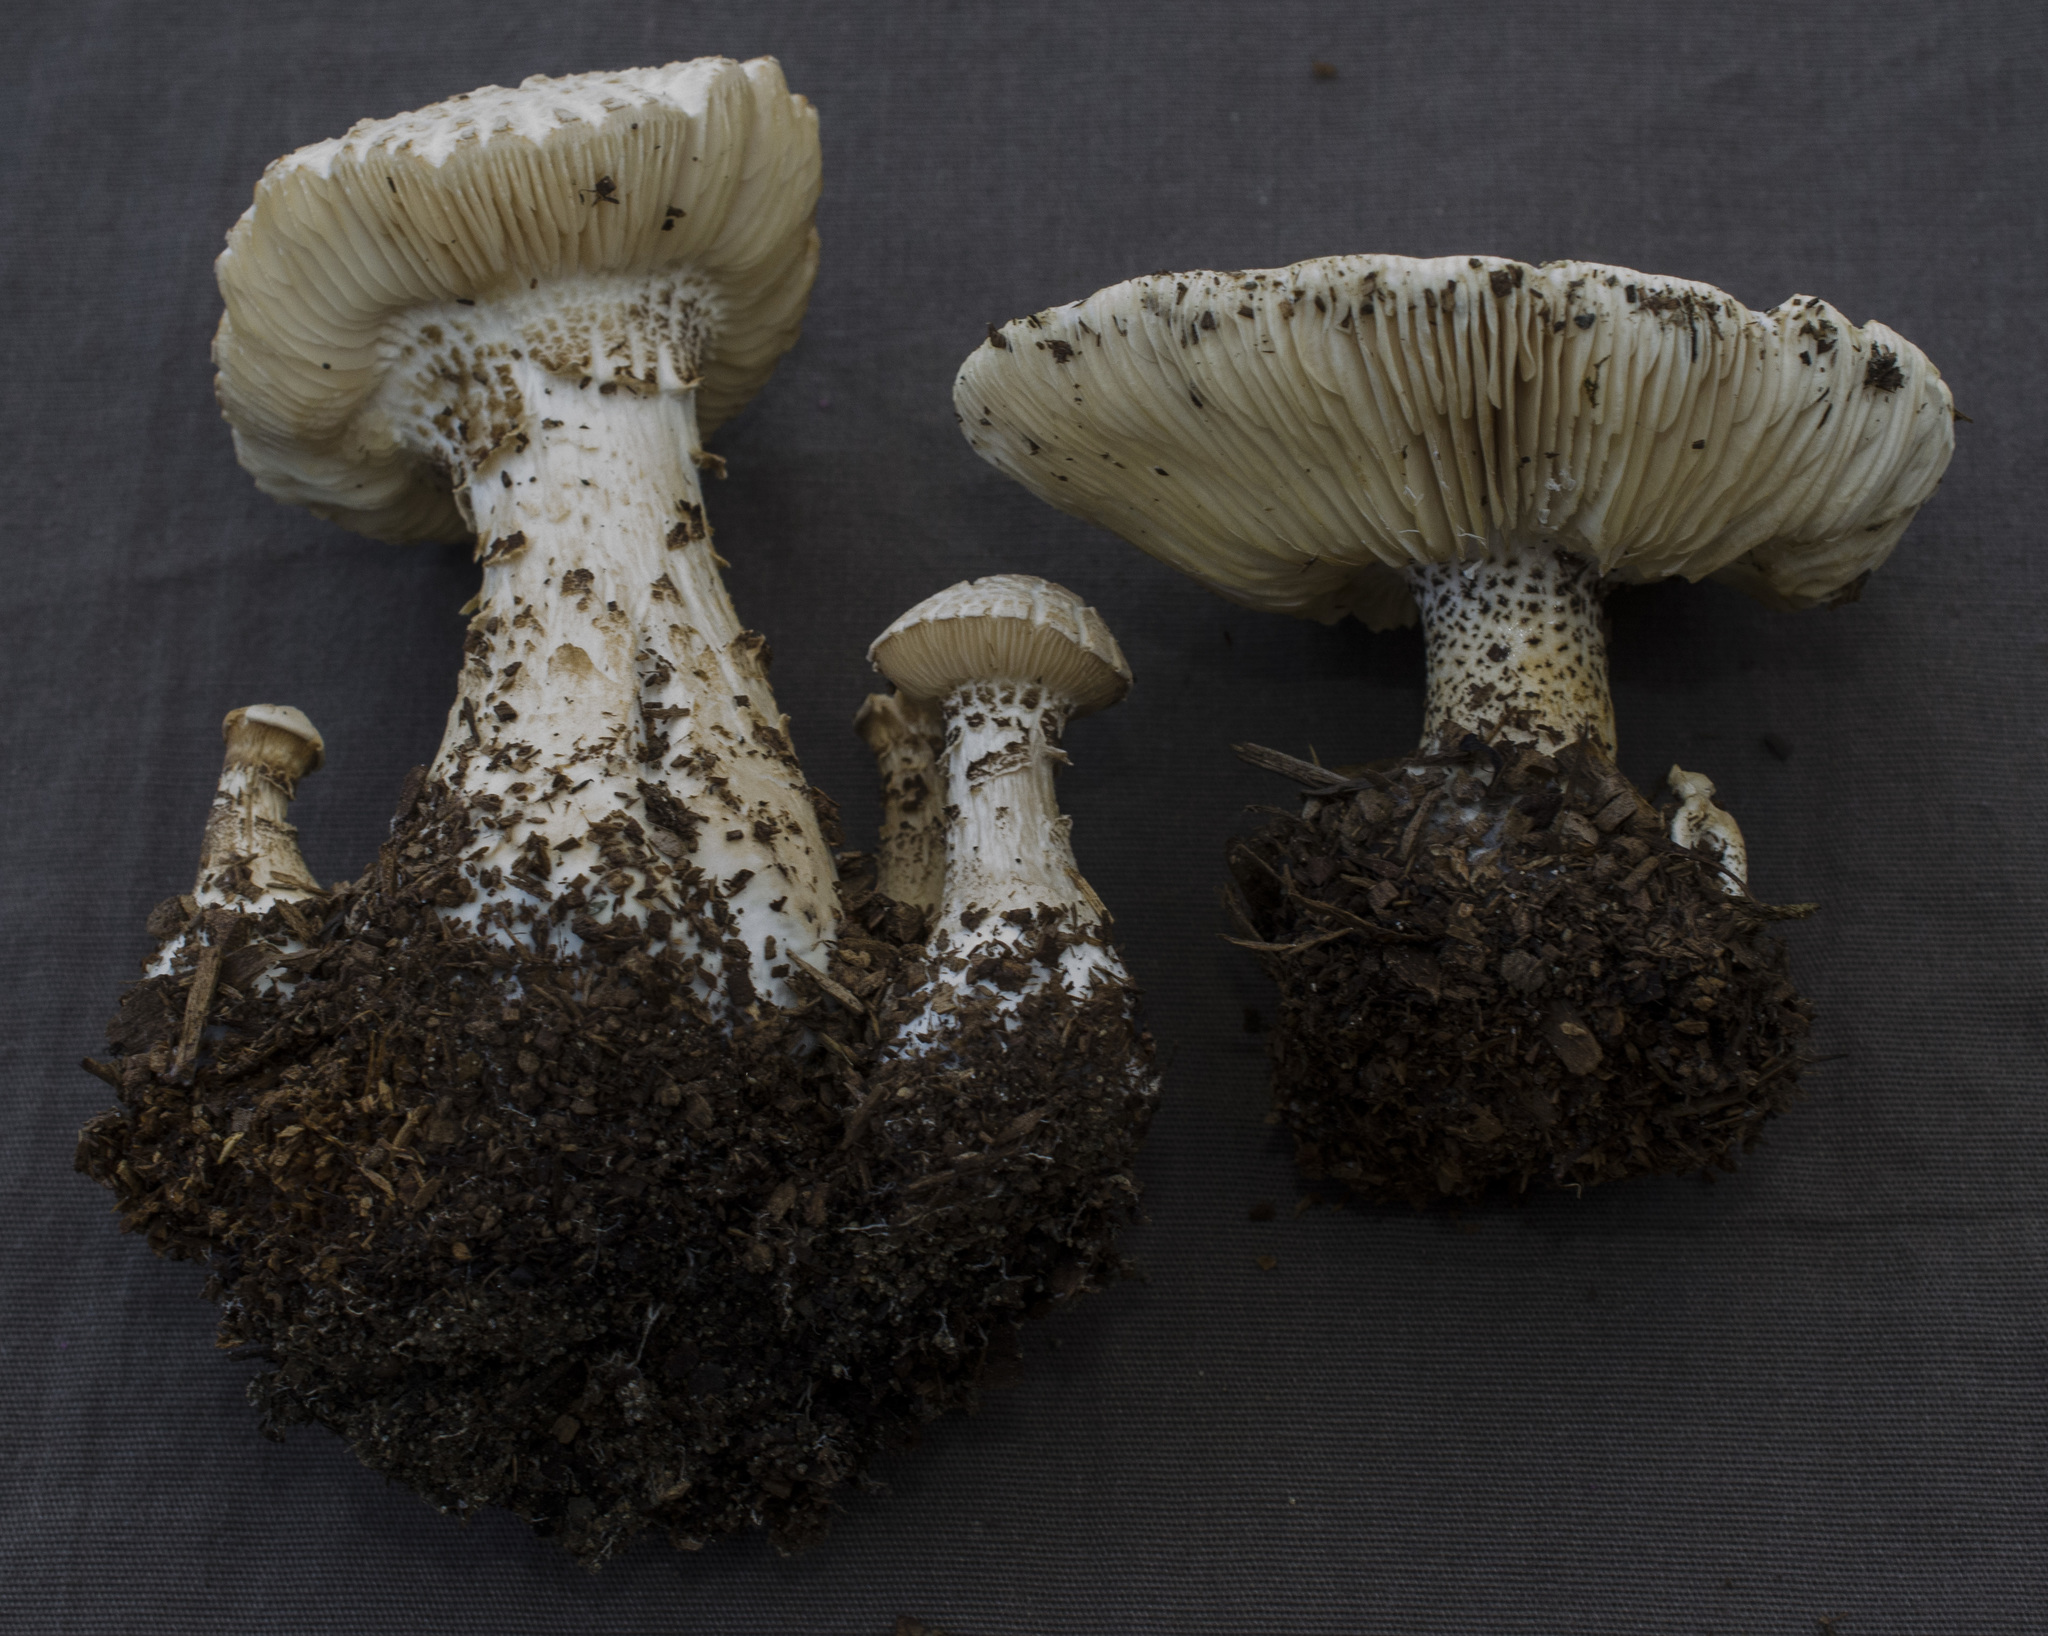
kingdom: Fungi
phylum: Basidiomycota
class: Agaricomycetes
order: Agaricales
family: Tricholomataceae
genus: Melanoleuca
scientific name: Melanoleuca verrucipes
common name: Warty cavalier
